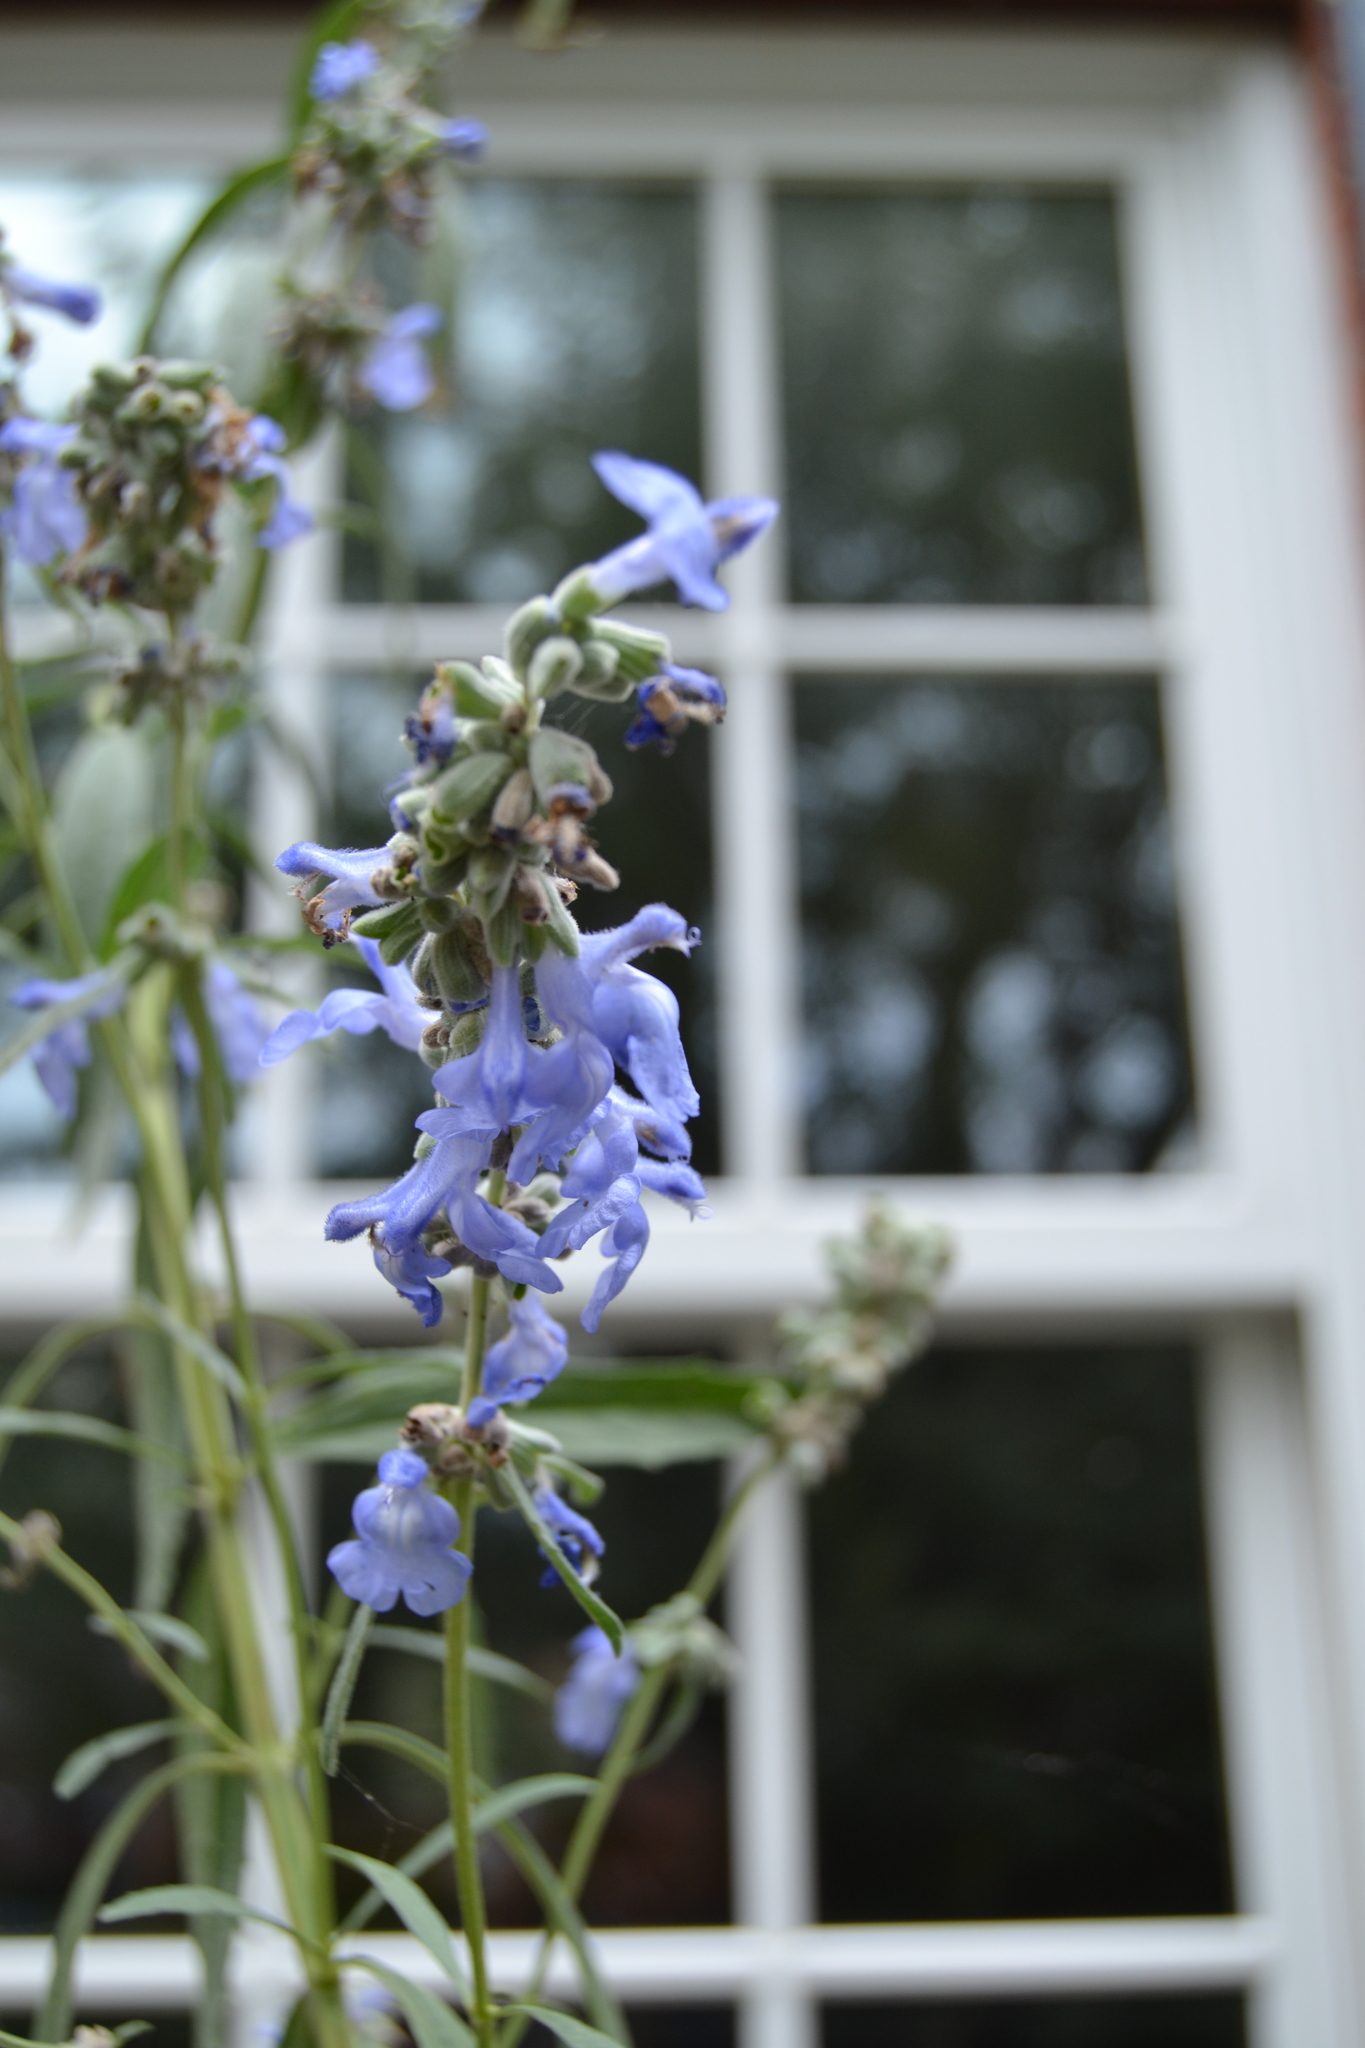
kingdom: Plantae
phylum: Tracheophyta
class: Magnoliopsida
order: Lamiales
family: Lamiaceae
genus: Salvia
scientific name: Salvia azurea
